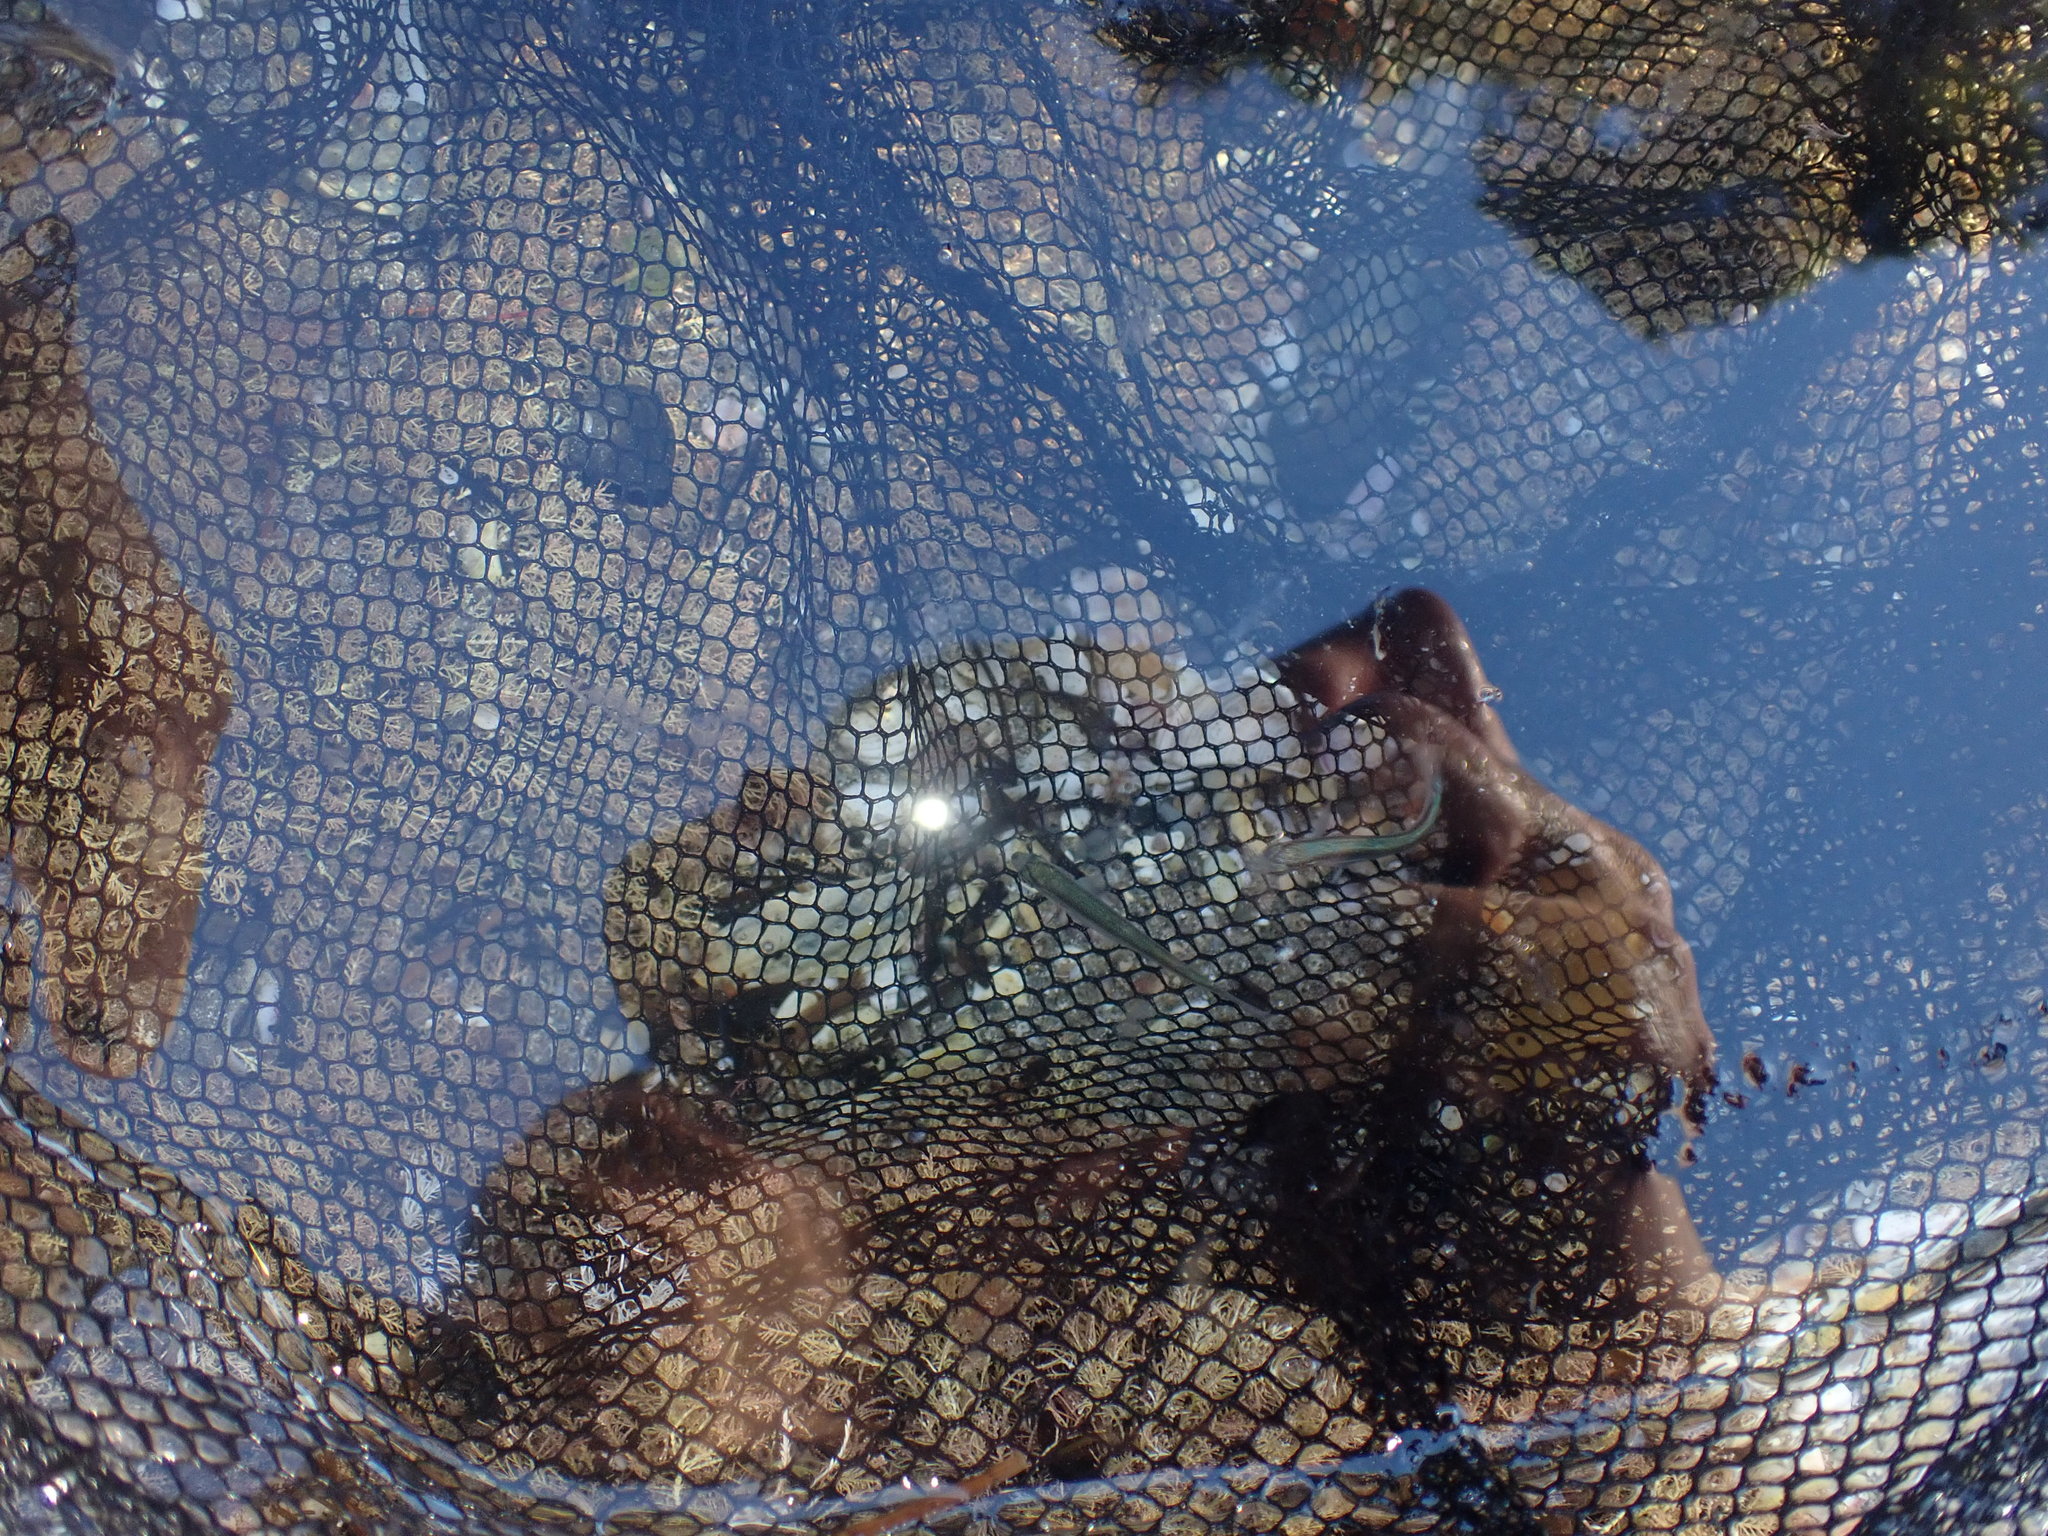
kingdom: Animalia
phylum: Chordata
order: Mugiliformes
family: Mugilidae
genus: Aldrichetta
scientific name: Aldrichetta forsteri
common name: Yellow-eye mullet
